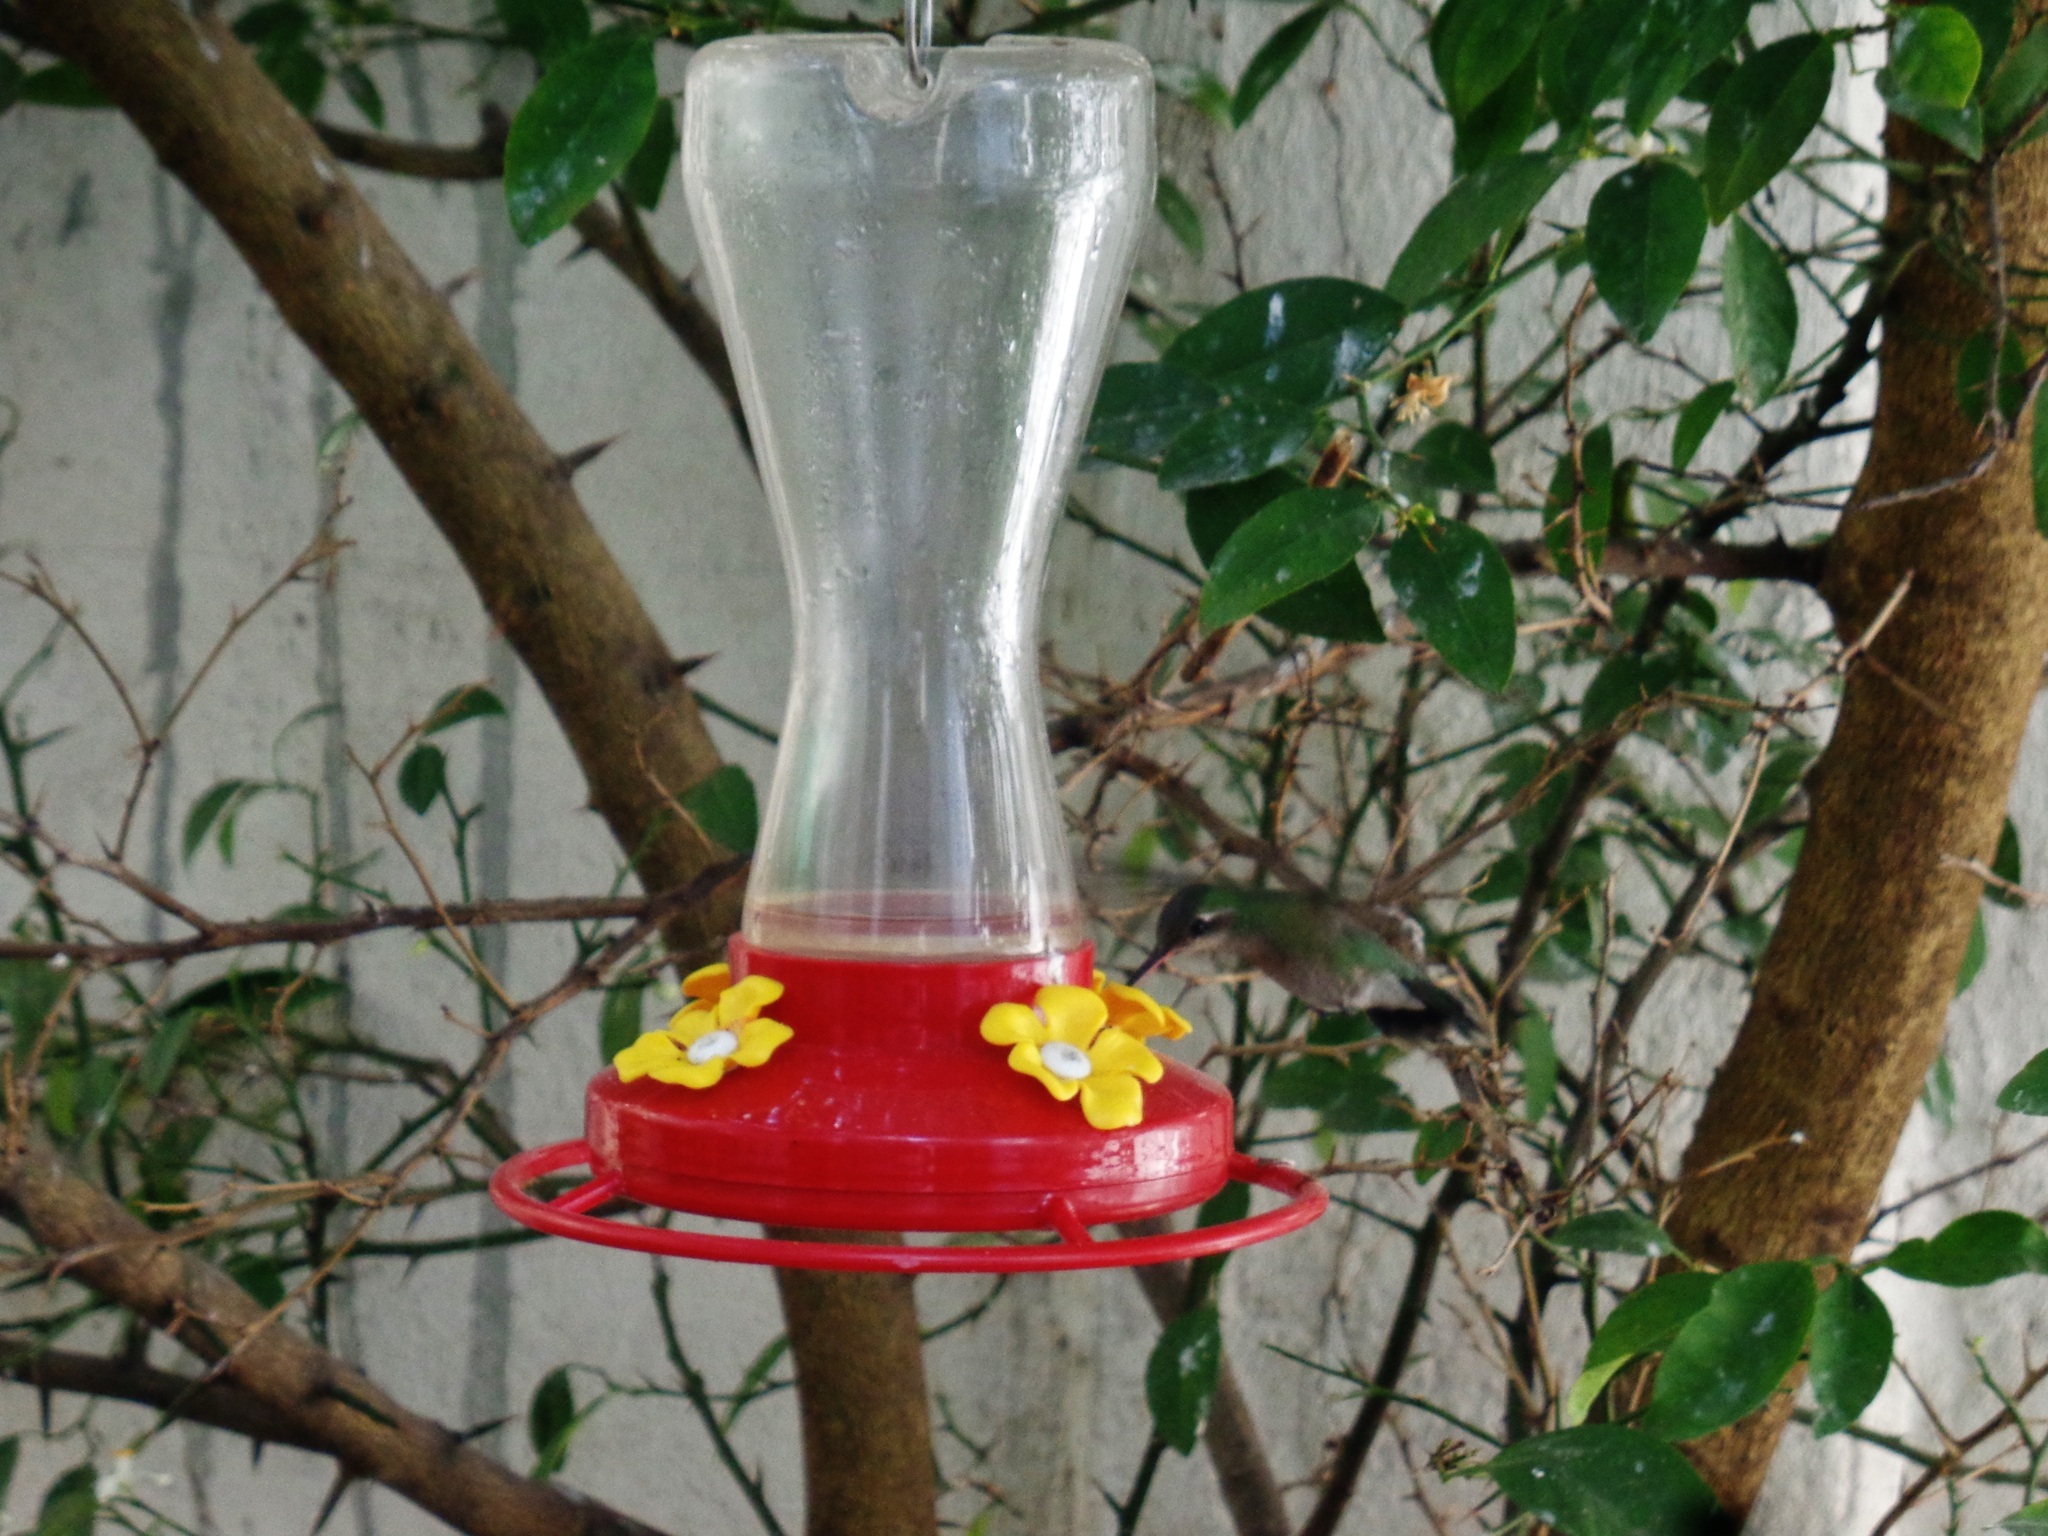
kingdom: Animalia
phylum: Chordata
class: Aves
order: Apodiformes
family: Trochilidae
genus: Cynanthus
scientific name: Cynanthus latirostris
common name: Broad-billed hummingbird
